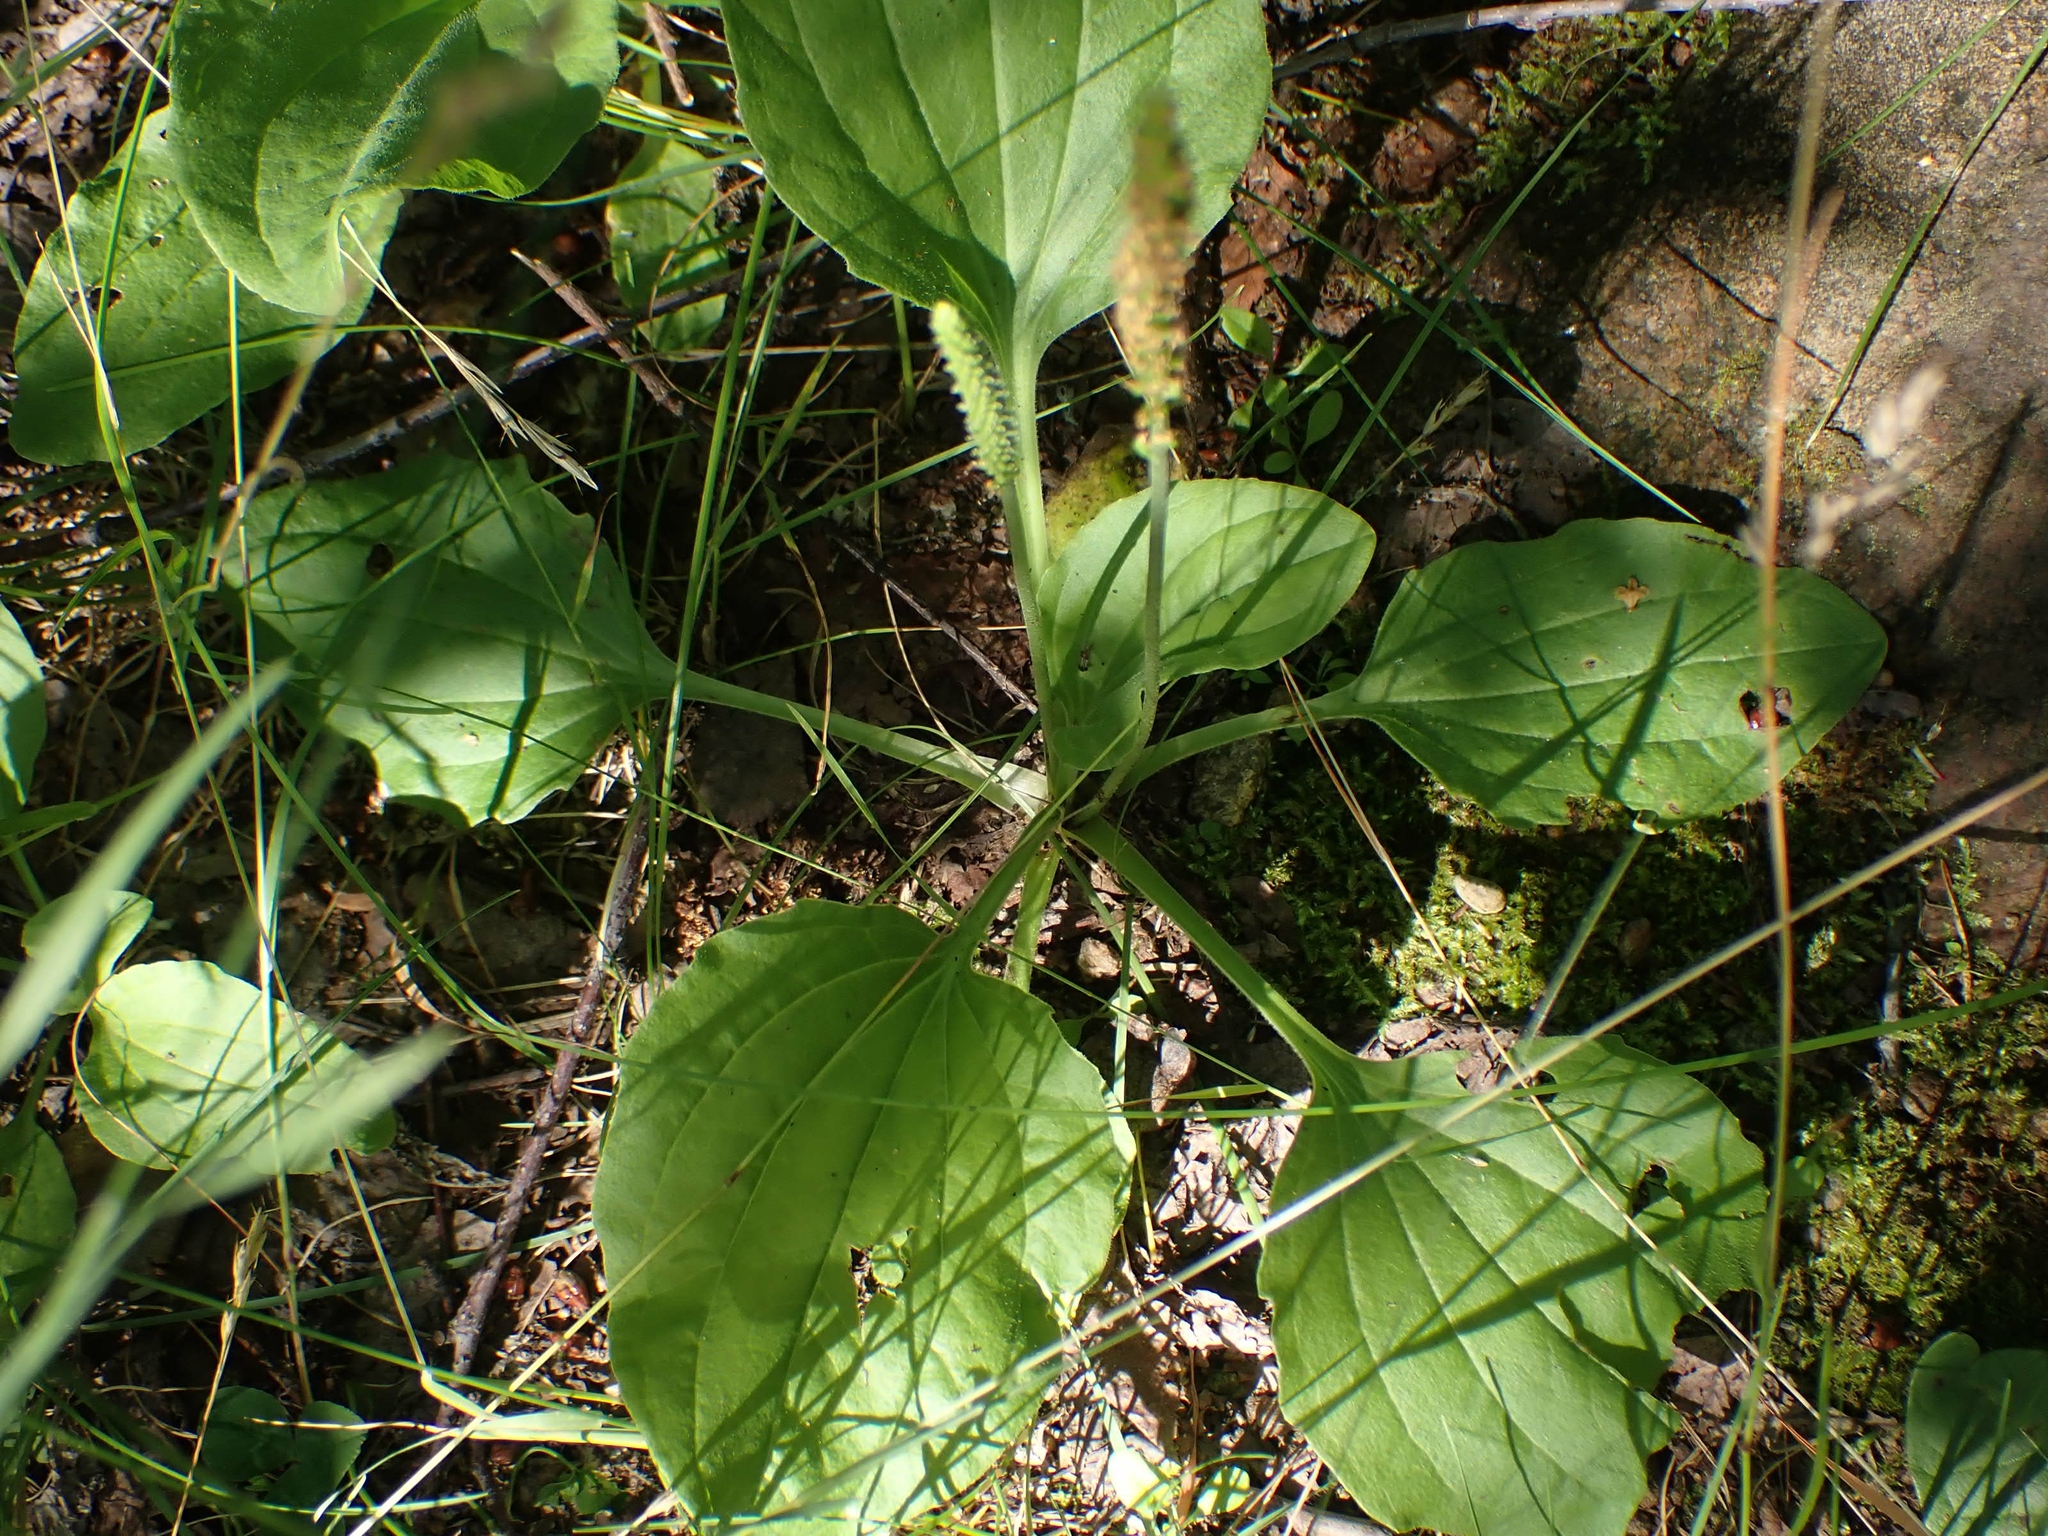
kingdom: Plantae
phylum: Tracheophyta
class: Magnoliopsida
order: Lamiales
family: Plantaginaceae
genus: Plantago
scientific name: Plantago major
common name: Common plantain
